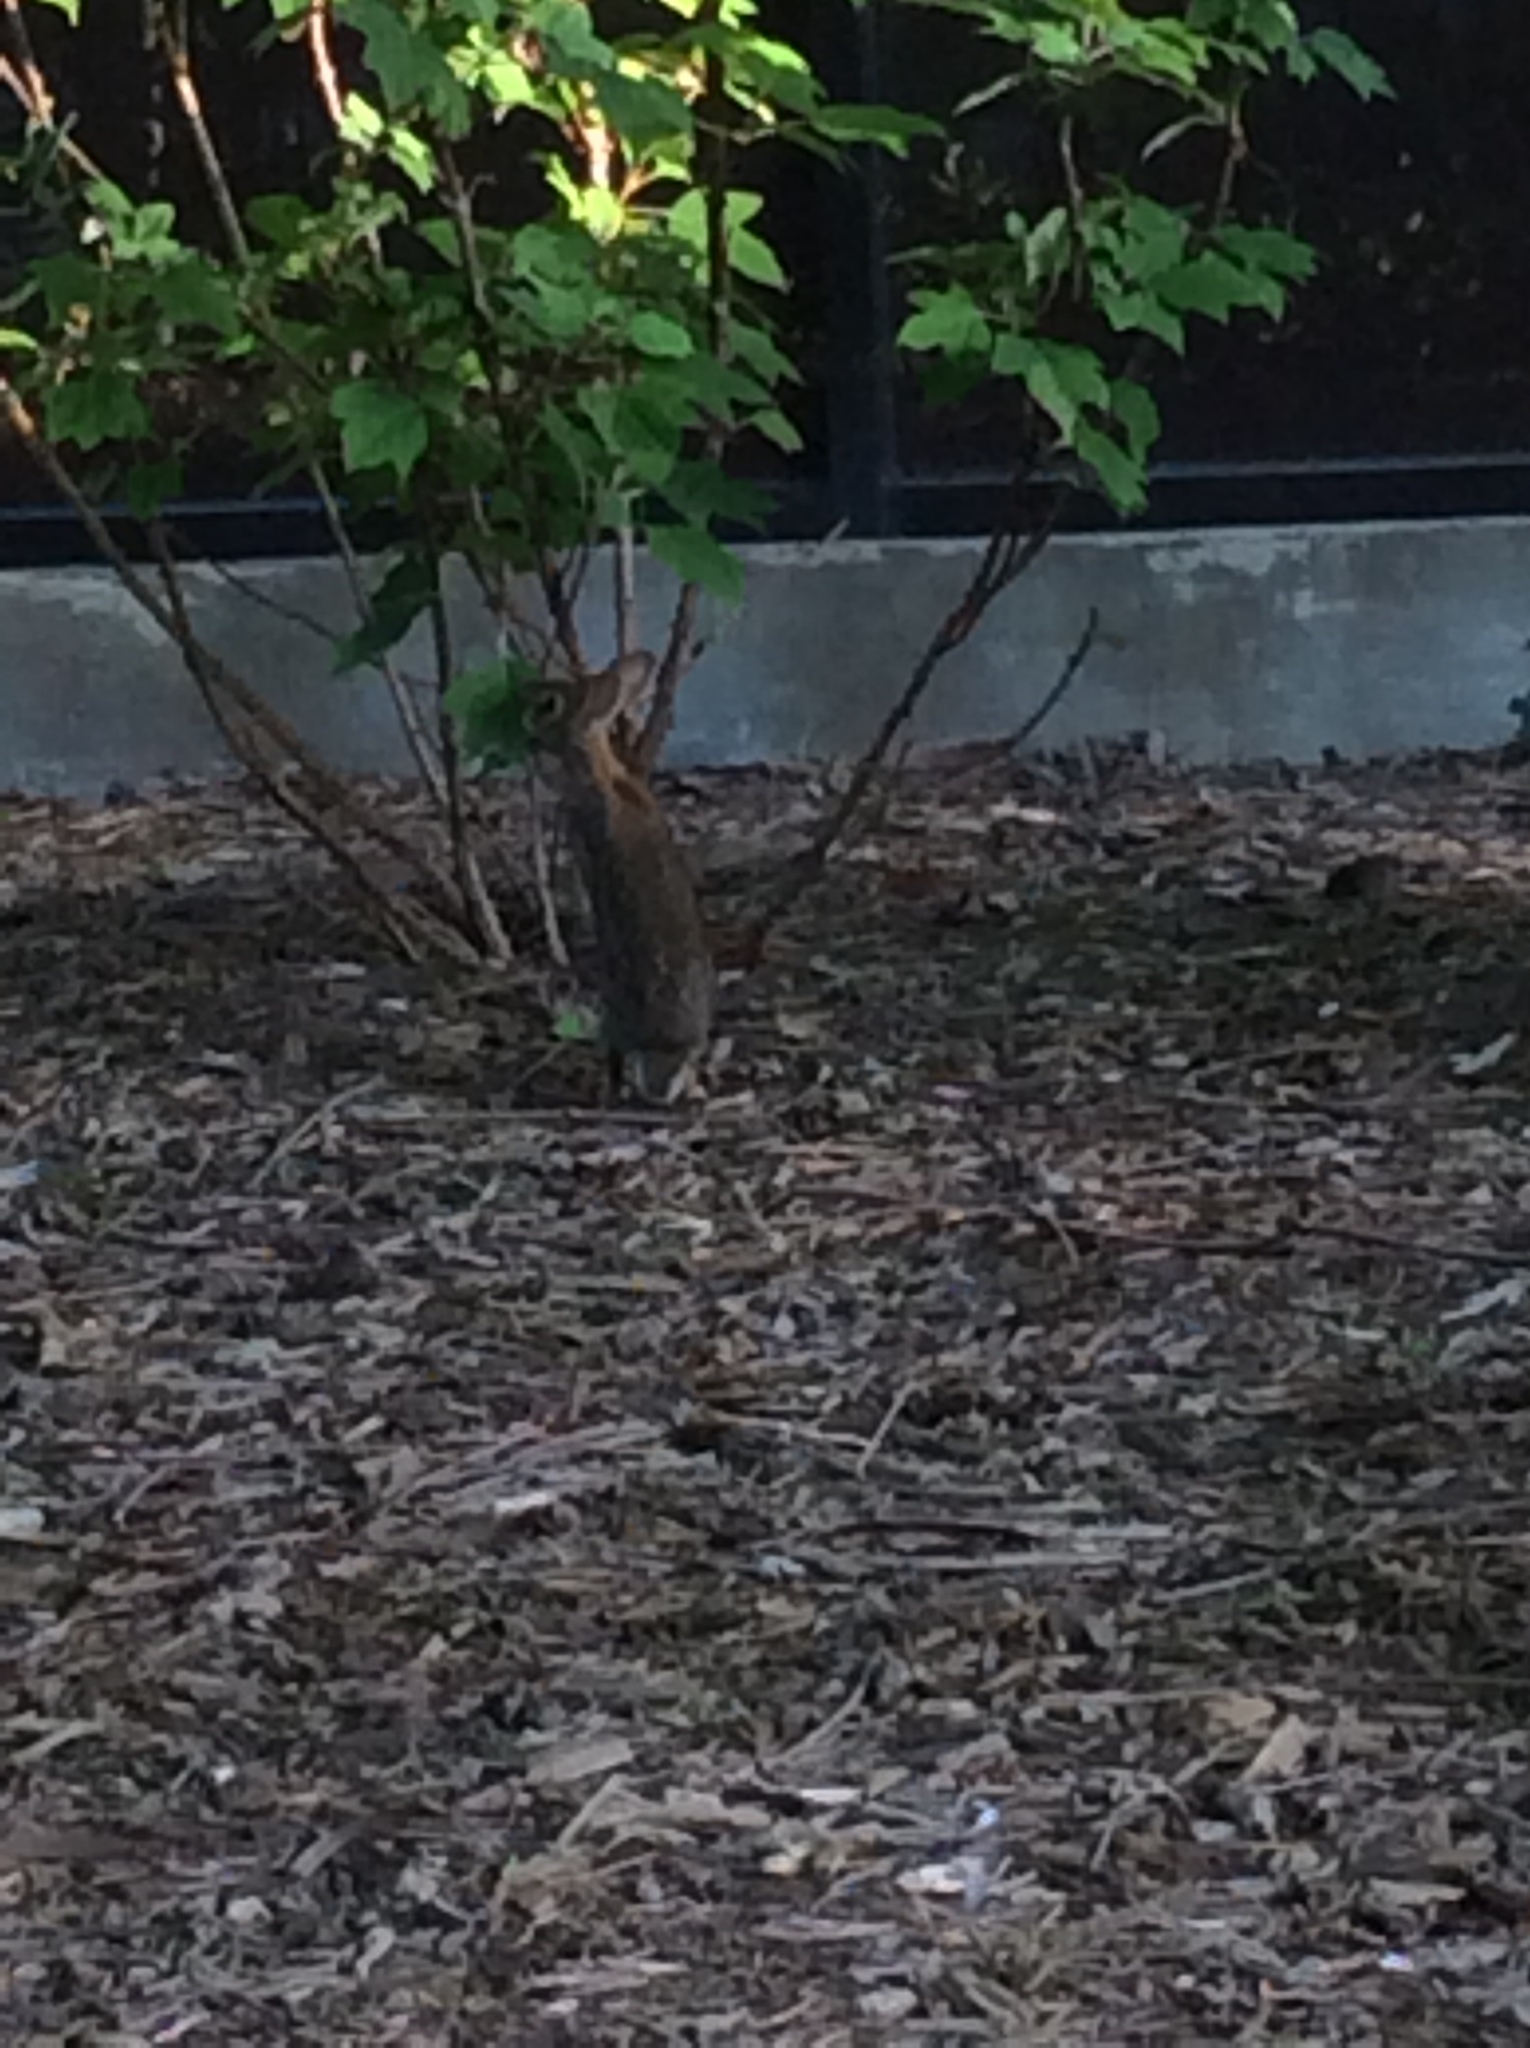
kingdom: Animalia
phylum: Chordata
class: Mammalia
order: Lagomorpha
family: Leporidae
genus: Sylvilagus
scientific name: Sylvilagus floridanus
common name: Eastern cottontail
